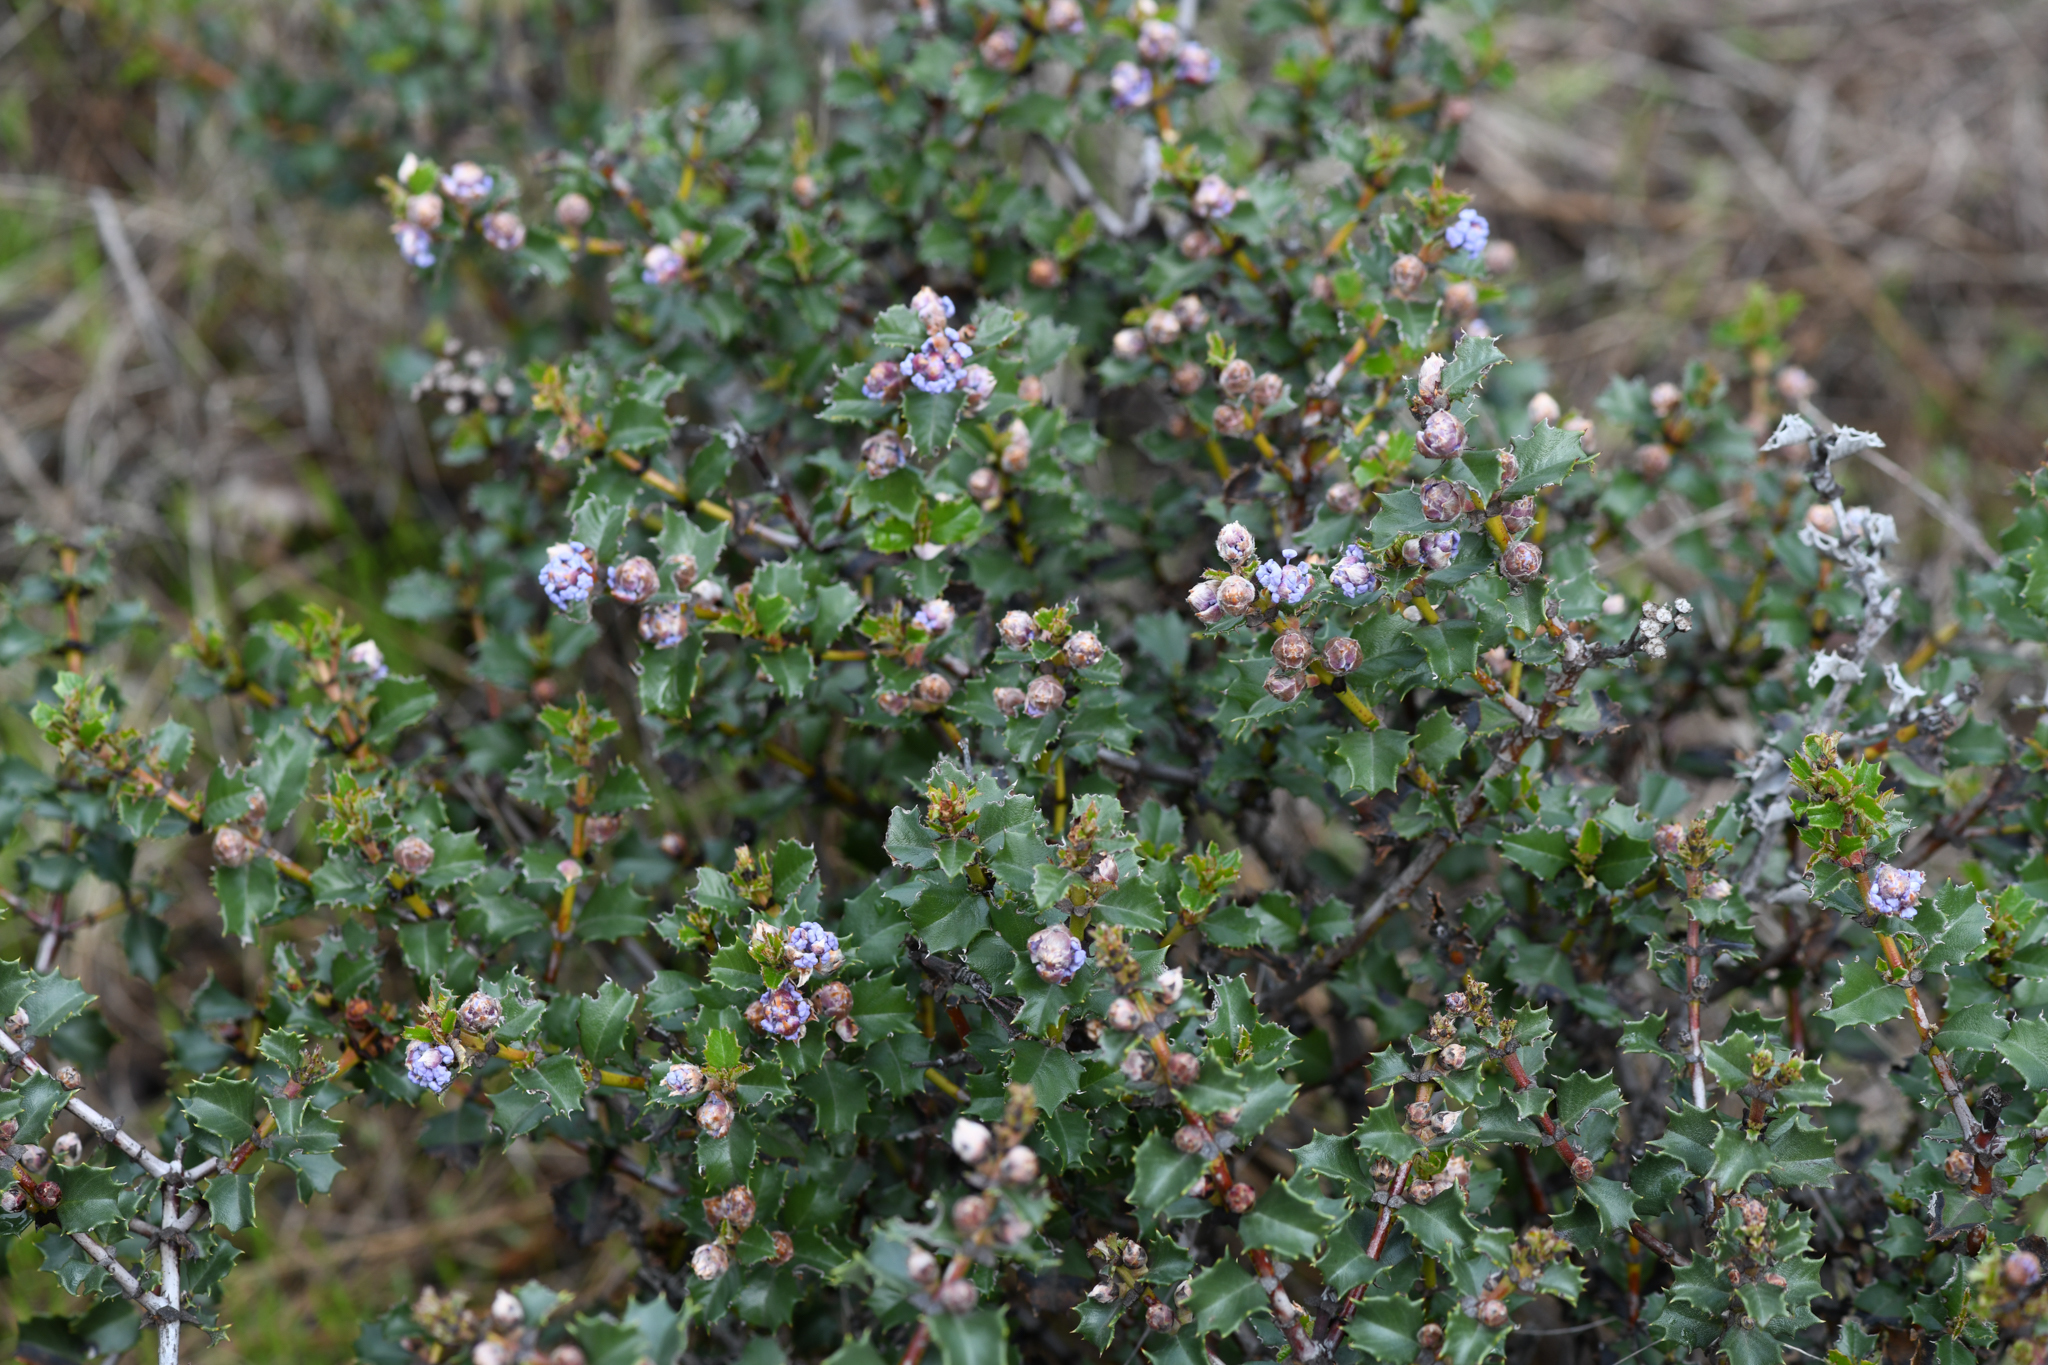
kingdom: Plantae
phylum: Tracheophyta
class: Magnoliopsida
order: Rosales
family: Rhamnaceae
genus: Ceanothus
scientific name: Ceanothus purpureus
